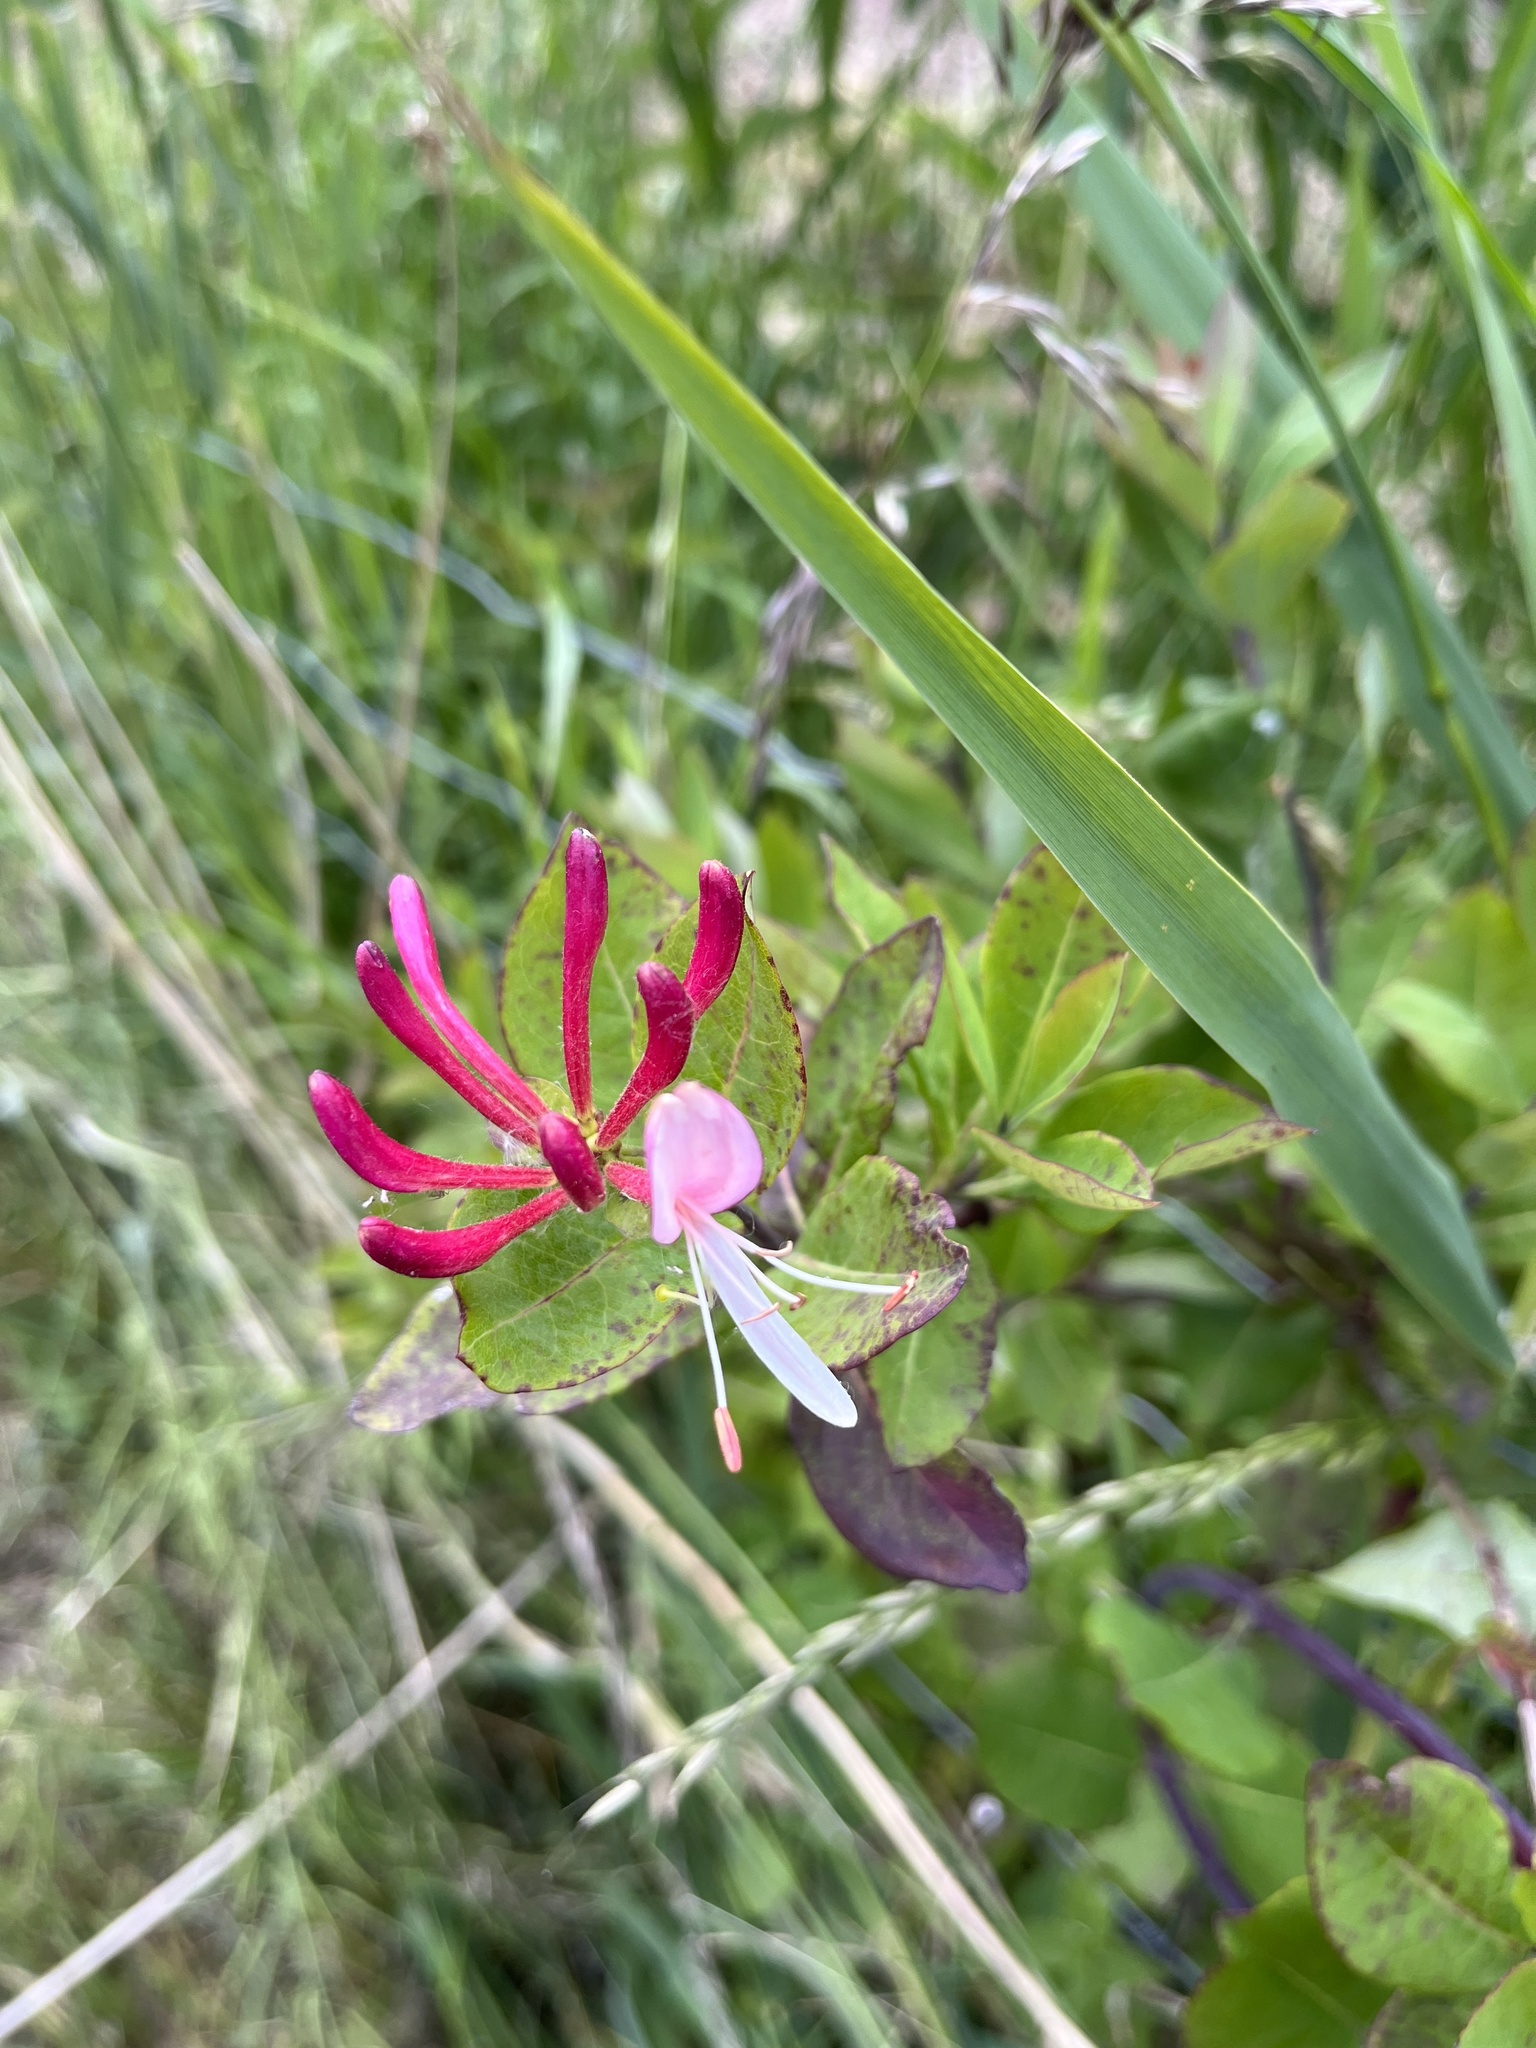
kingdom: Plantae
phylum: Tracheophyta
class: Magnoliopsida
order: Dipsacales
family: Caprifoliaceae
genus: Lonicera
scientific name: Lonicera periclymenum
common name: European honeysuckle
